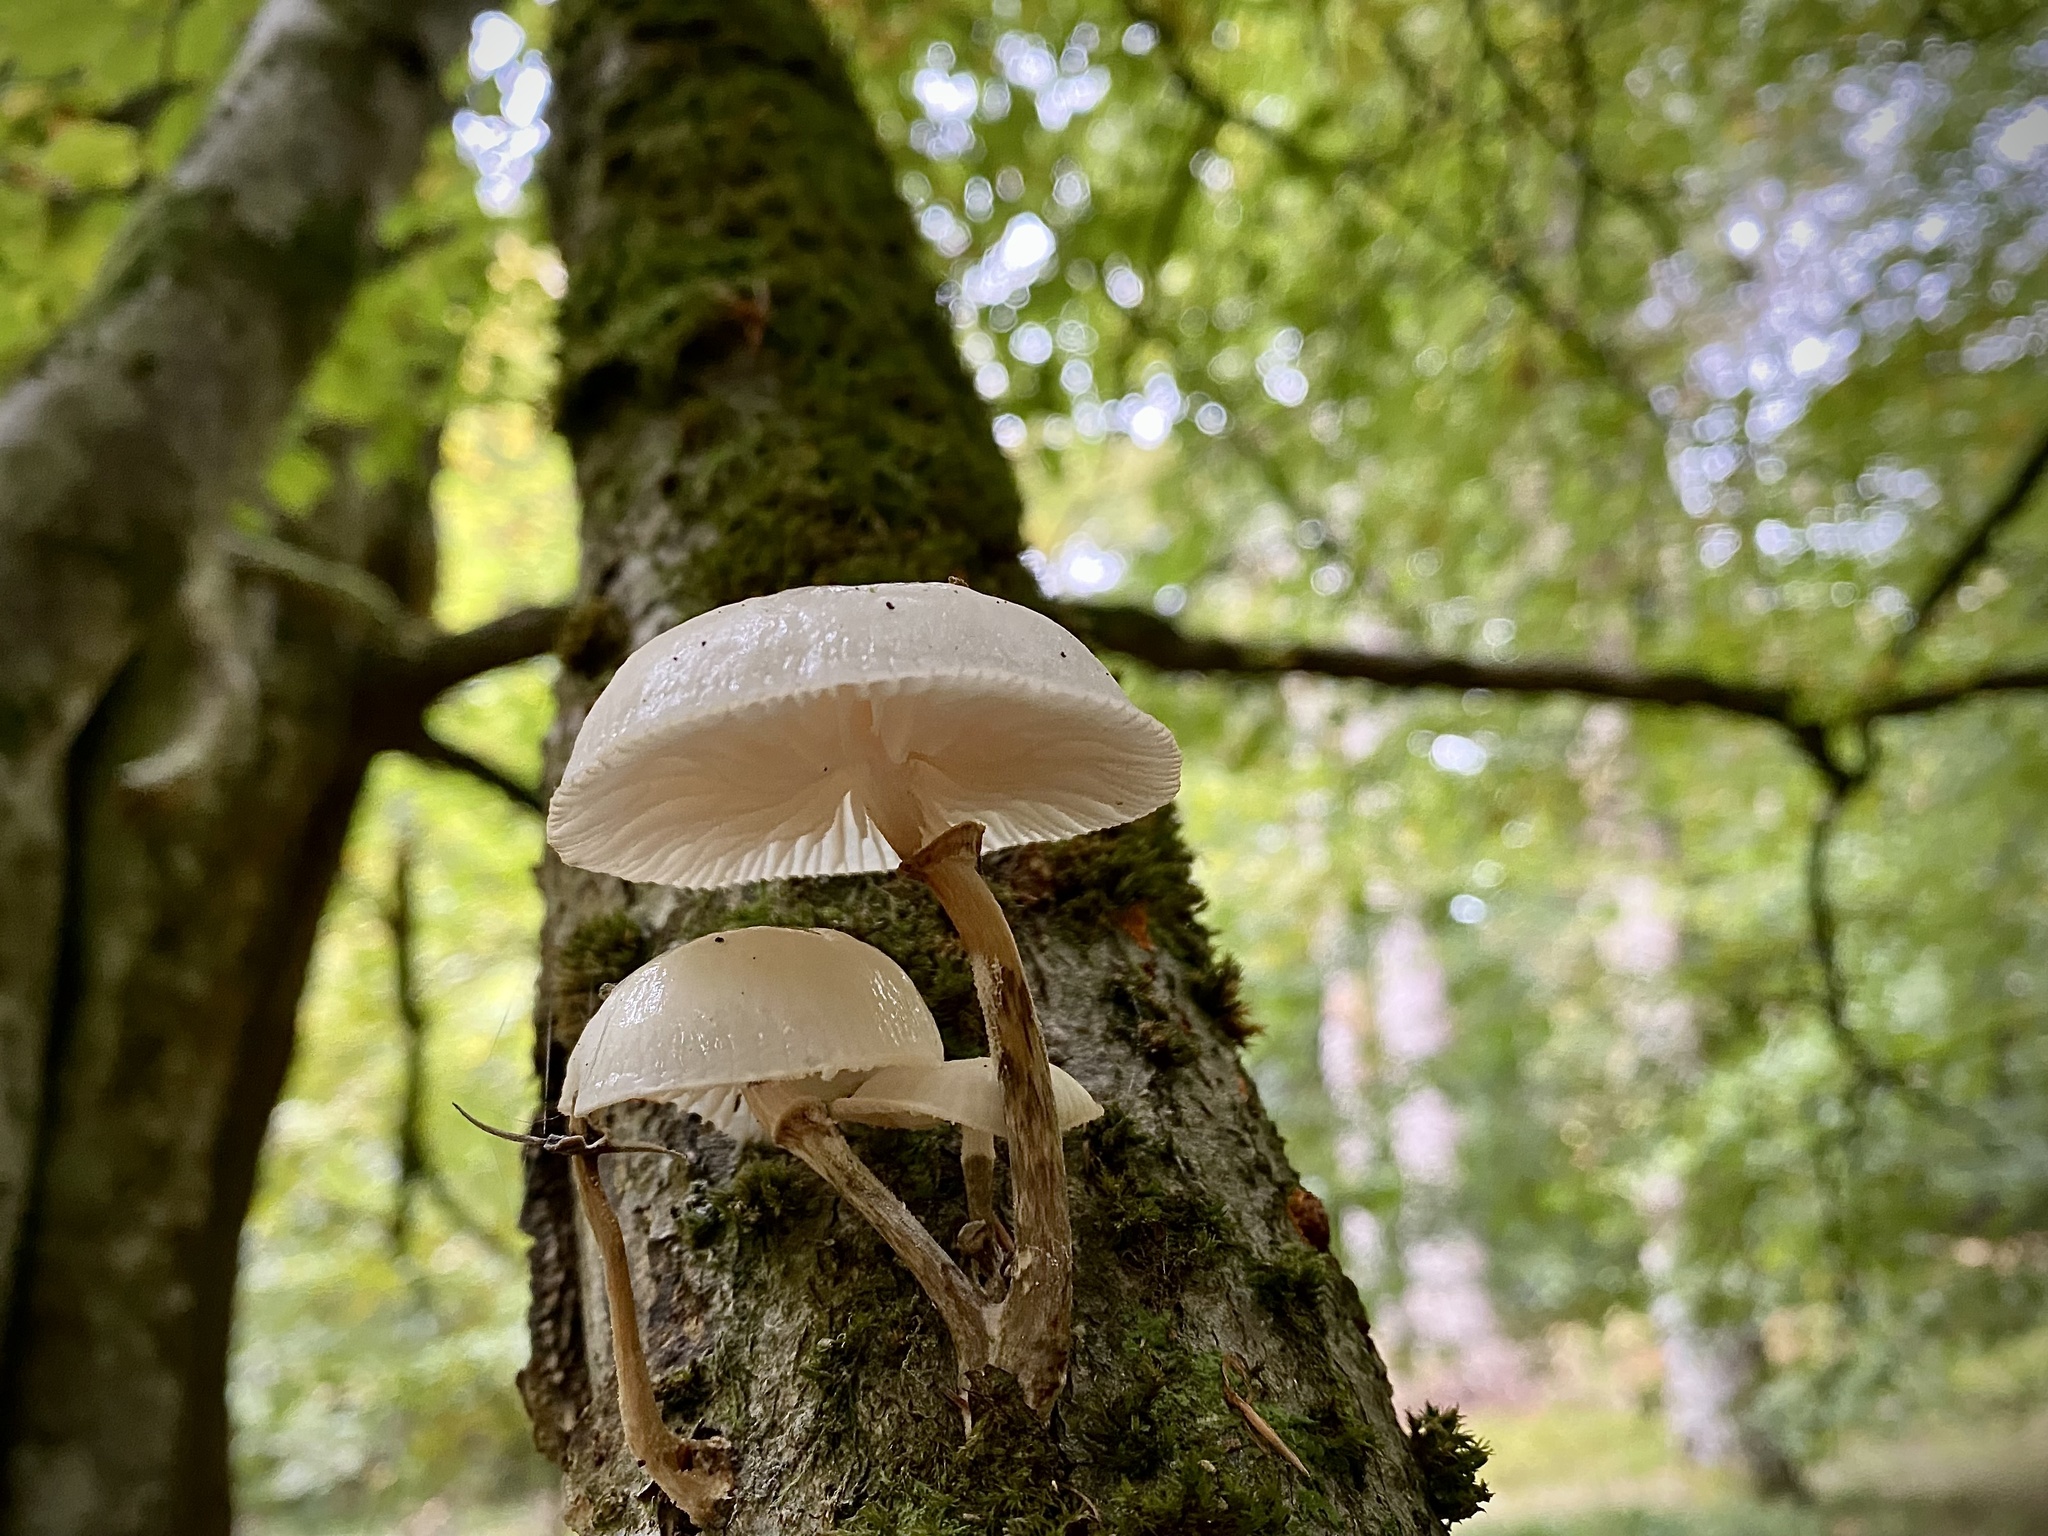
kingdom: Fungi
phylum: Basidiomycota
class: Agaricomycetes
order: Agaricales
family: Physalacriaceae
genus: Mucidula
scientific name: Mucidula mucida
